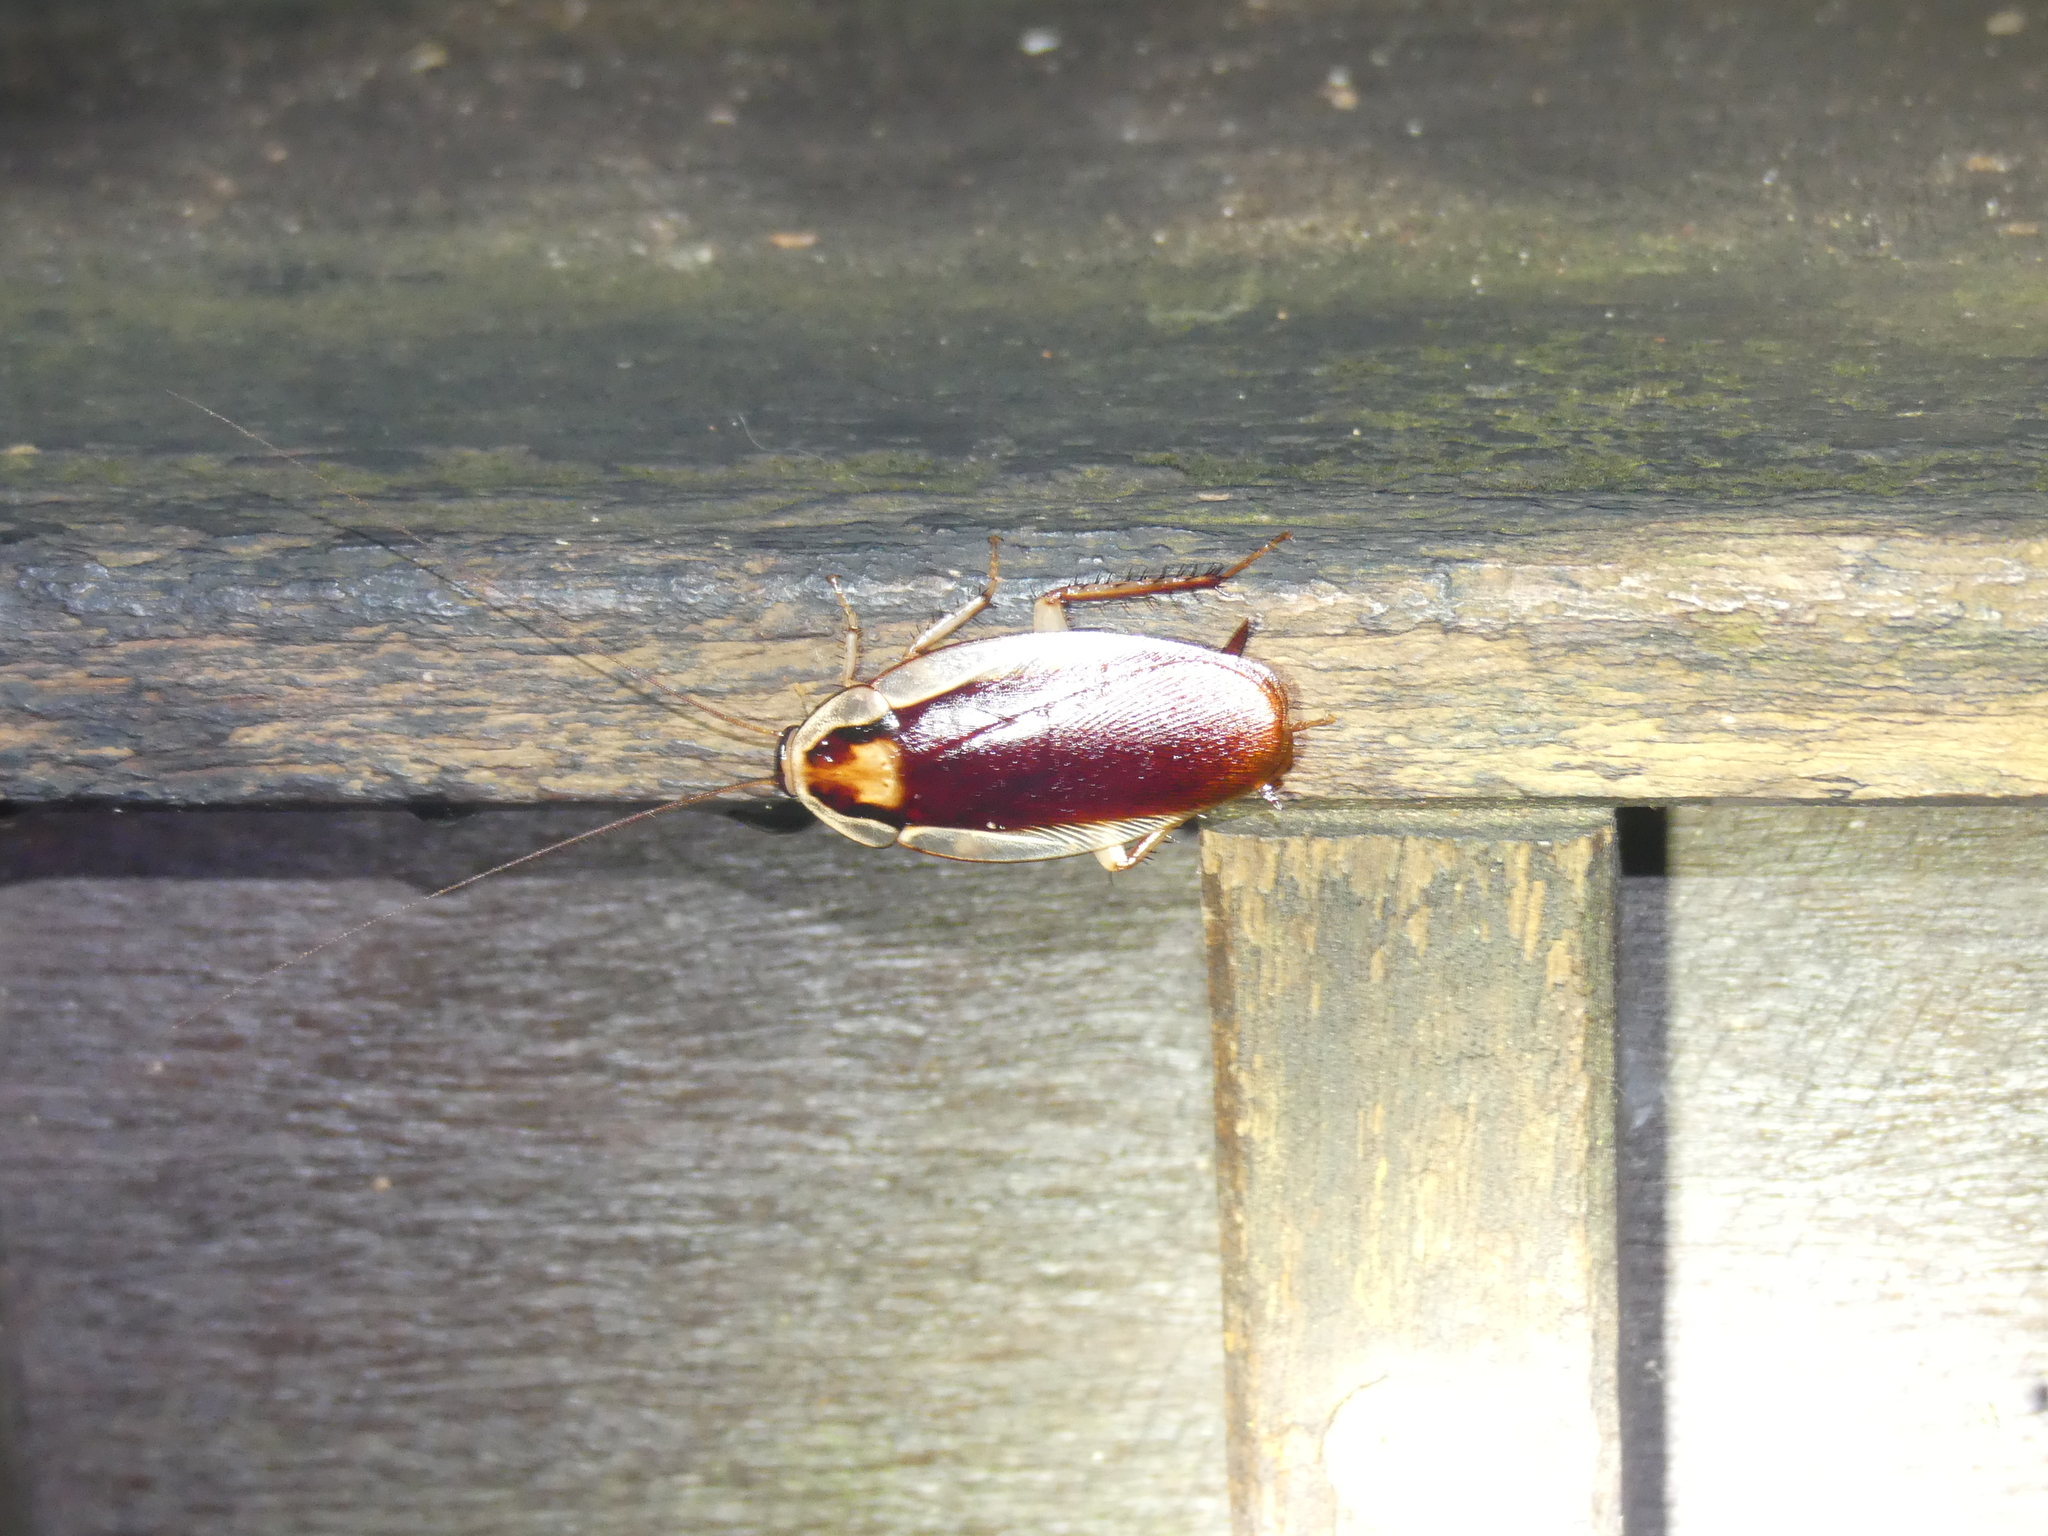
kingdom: Animalia
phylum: Arthropoda
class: Insecta
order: Blattodea
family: Blattidae
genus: Methana
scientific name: Methana athertonensis
